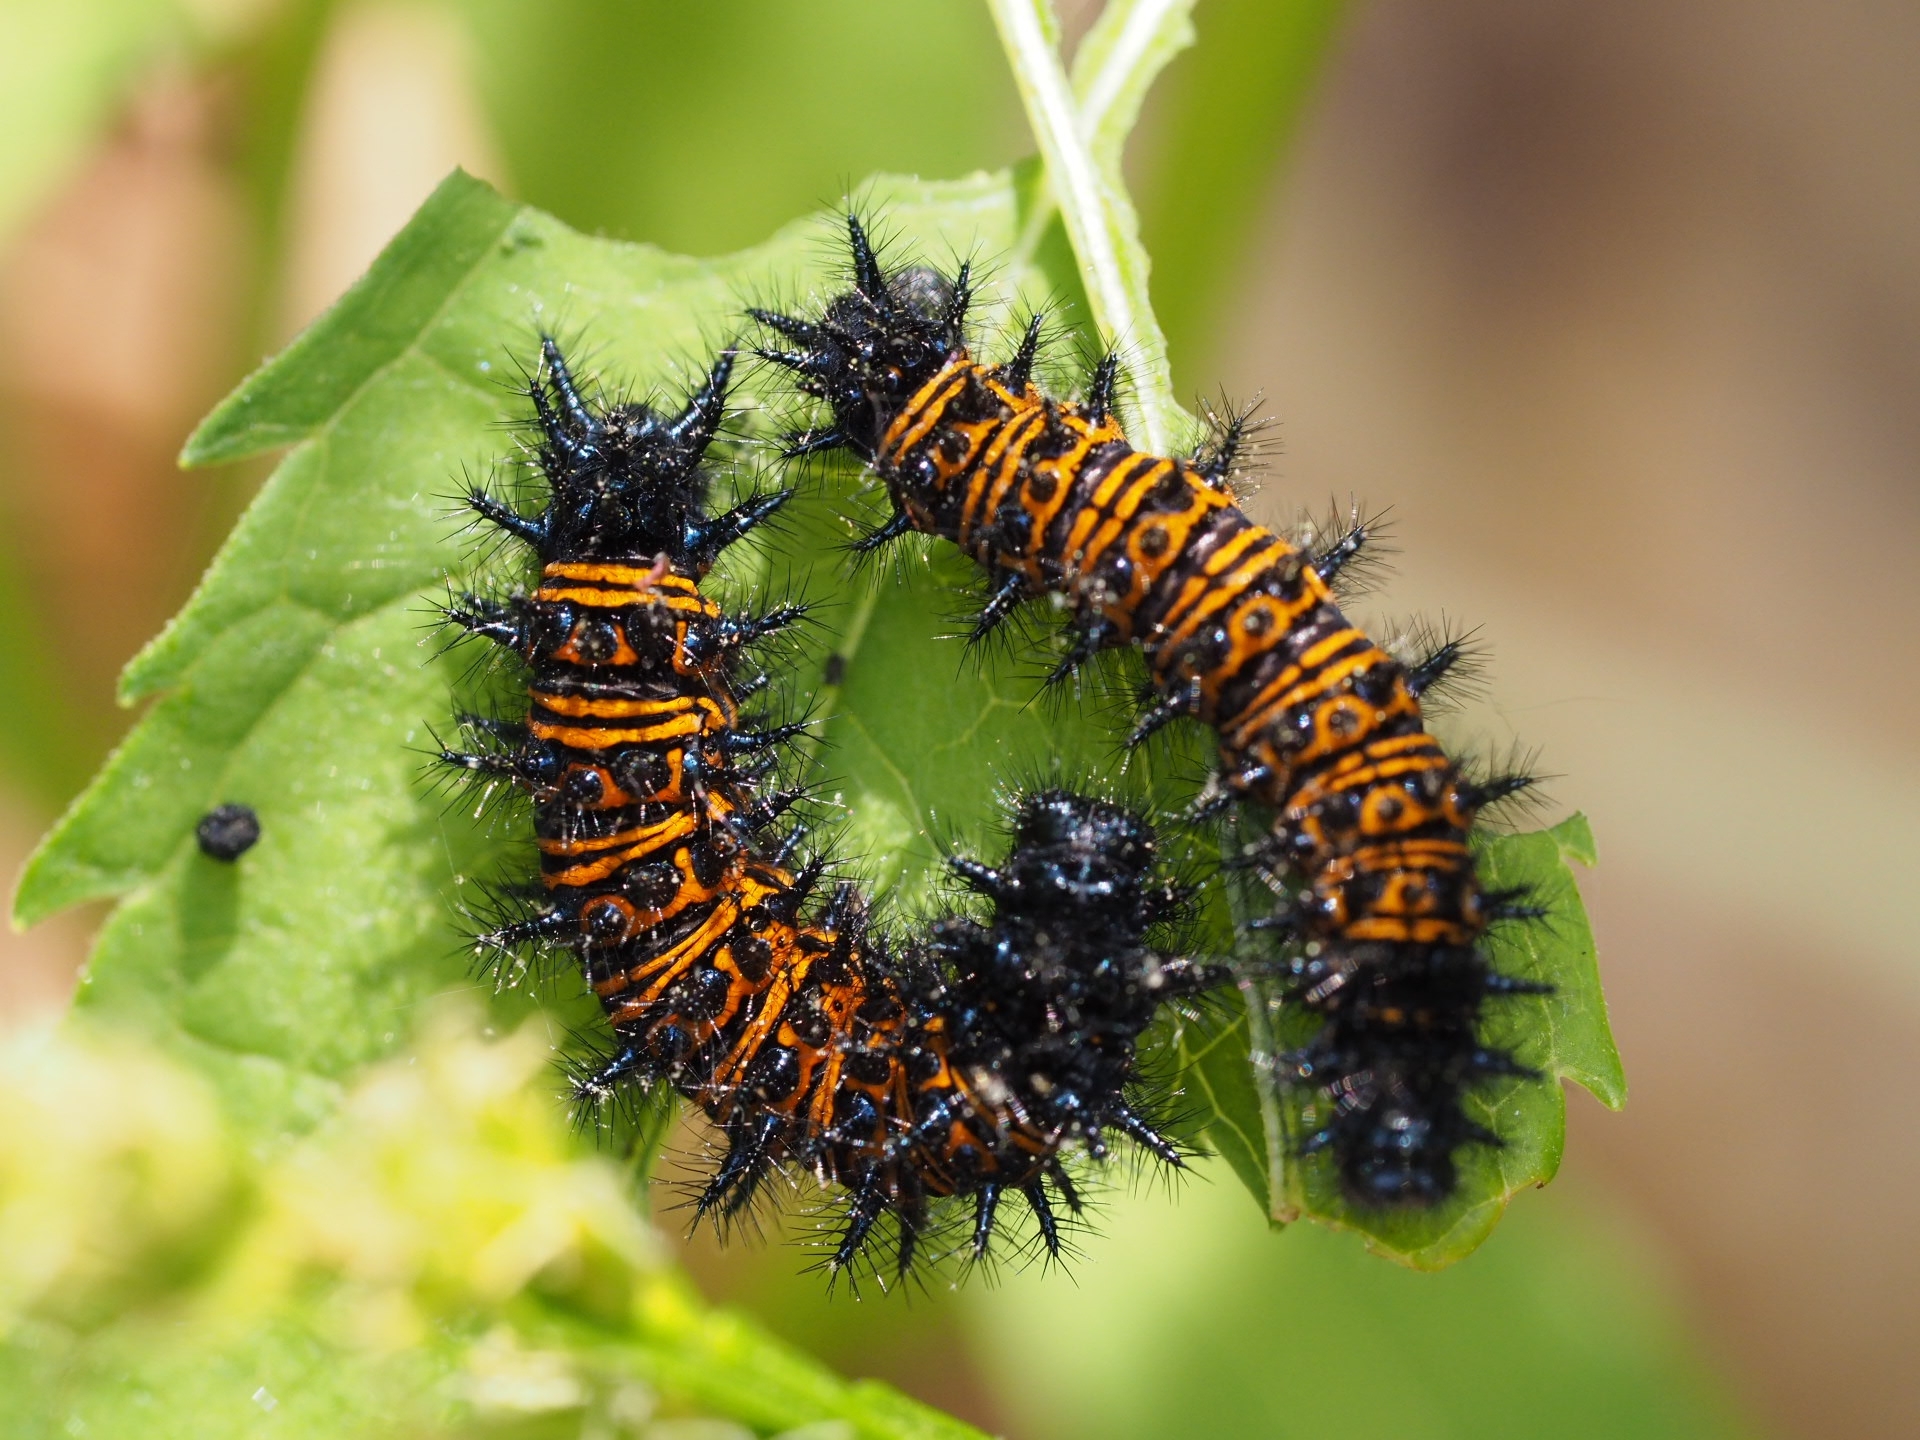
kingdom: Animalia
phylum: Arthropoda
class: Insecta
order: Lepidoptera
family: Nymphalidae
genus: Euphydryas
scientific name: Euphydryas phaeton
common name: Baltimore checkerspot
